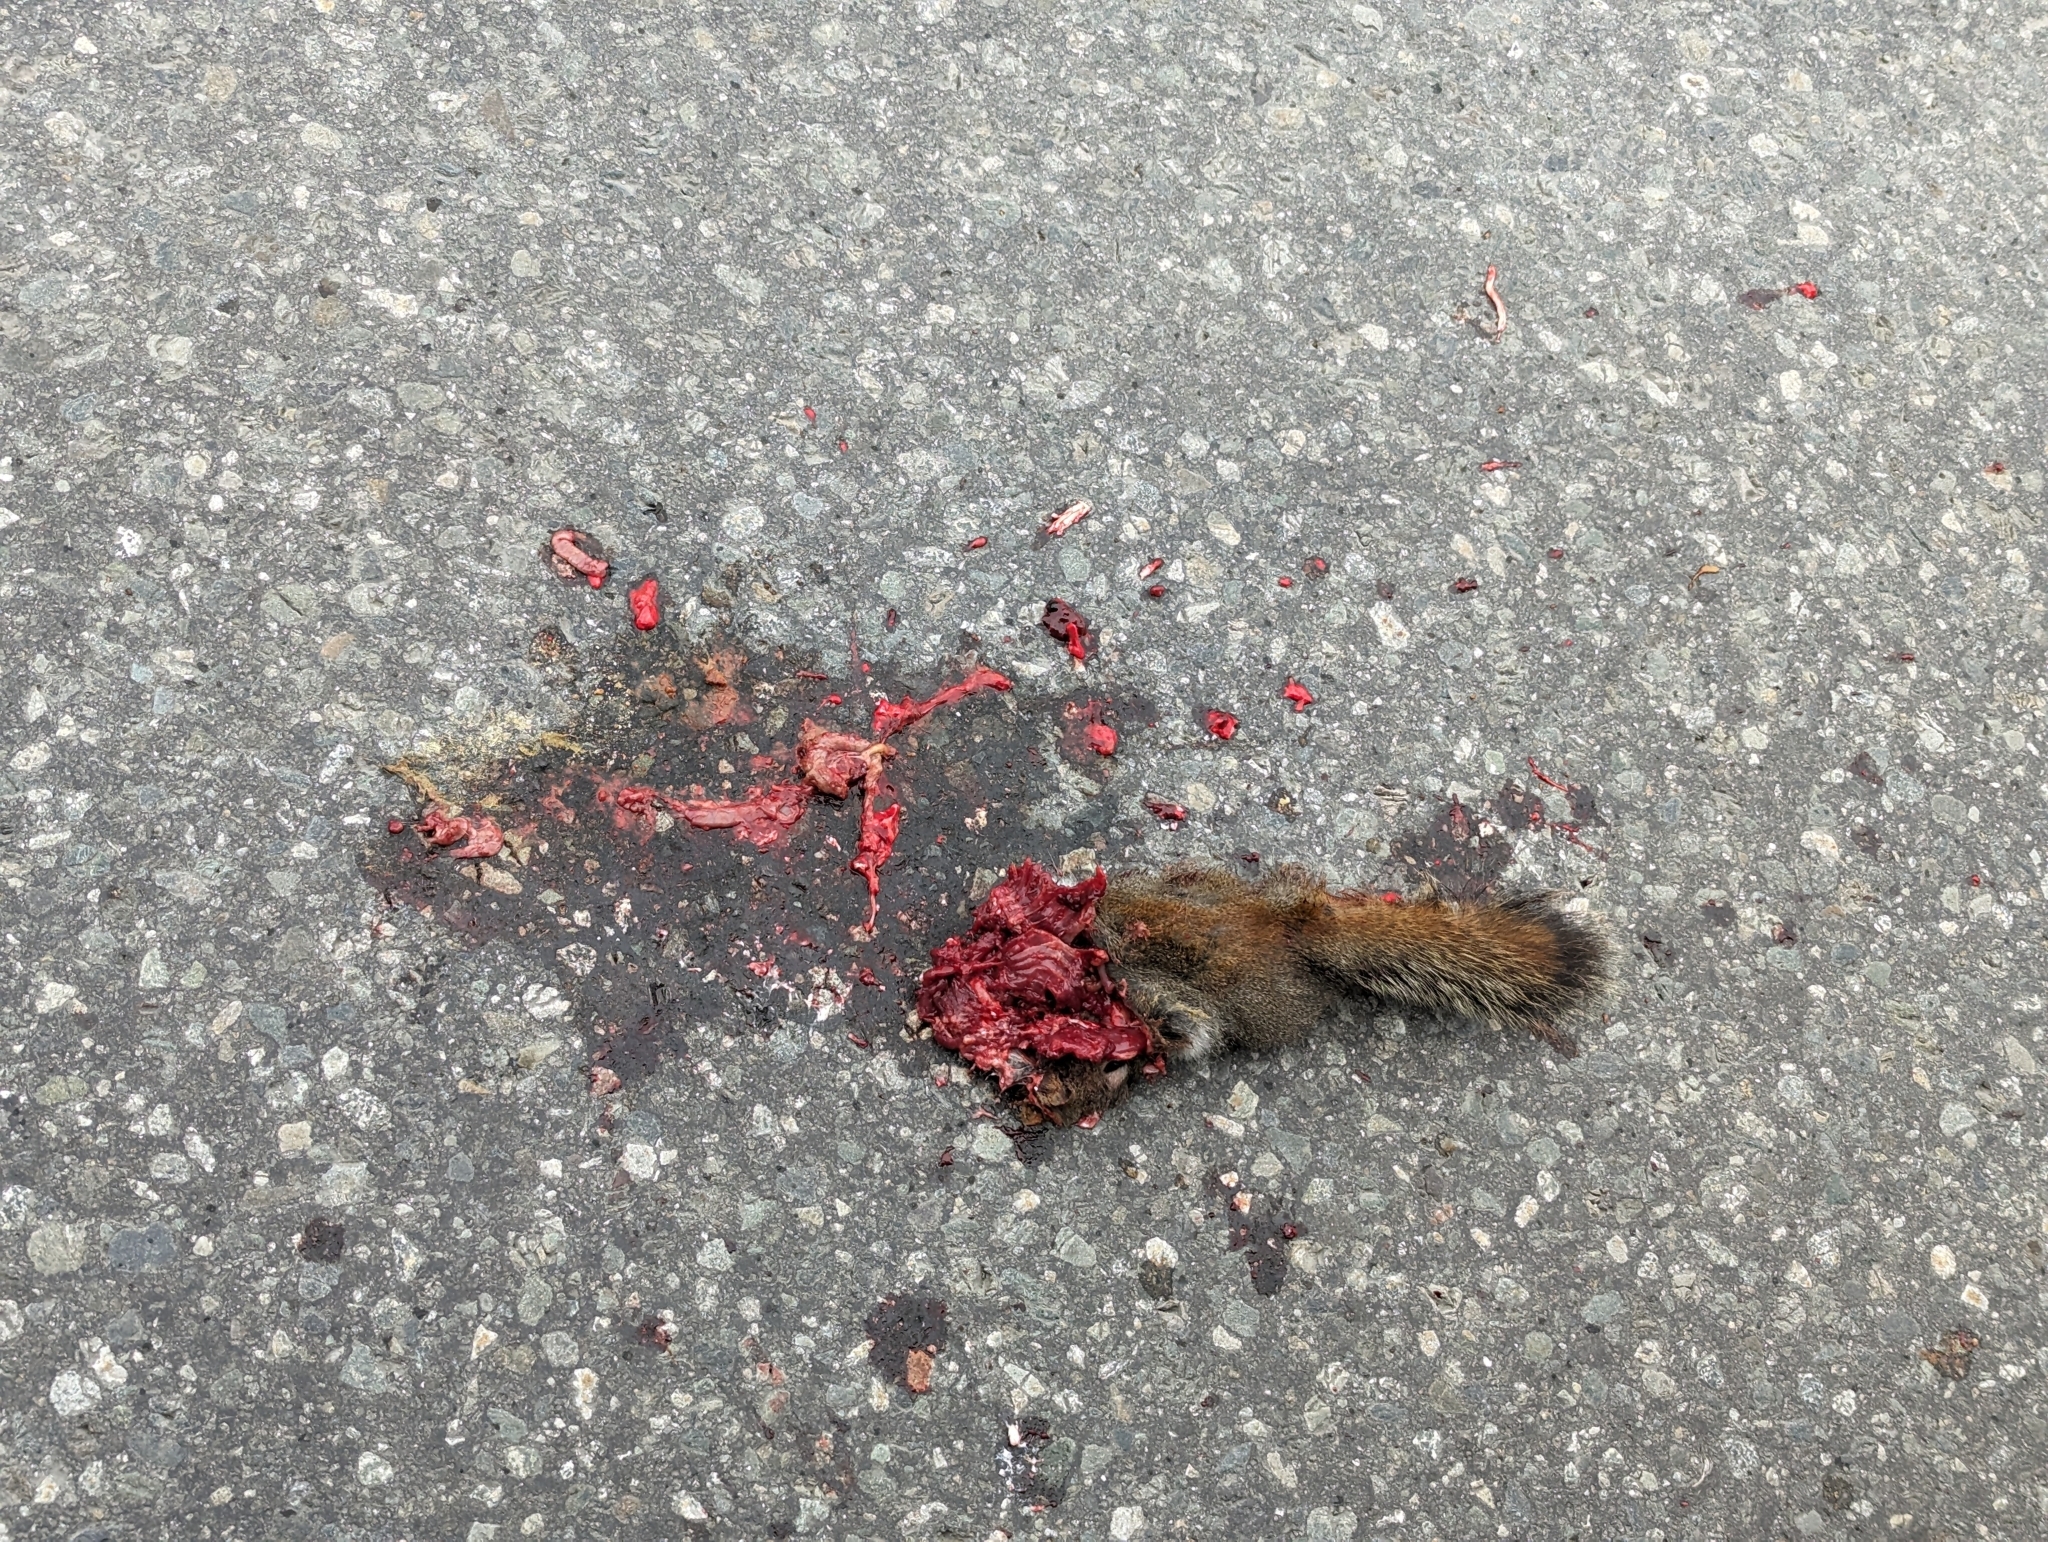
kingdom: Animalia
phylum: Chordata
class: Mammalia
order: Rodentia
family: Sciuridae
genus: Tamiasciurus
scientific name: Tamiasciurus hudsonicus
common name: Red squirrel
